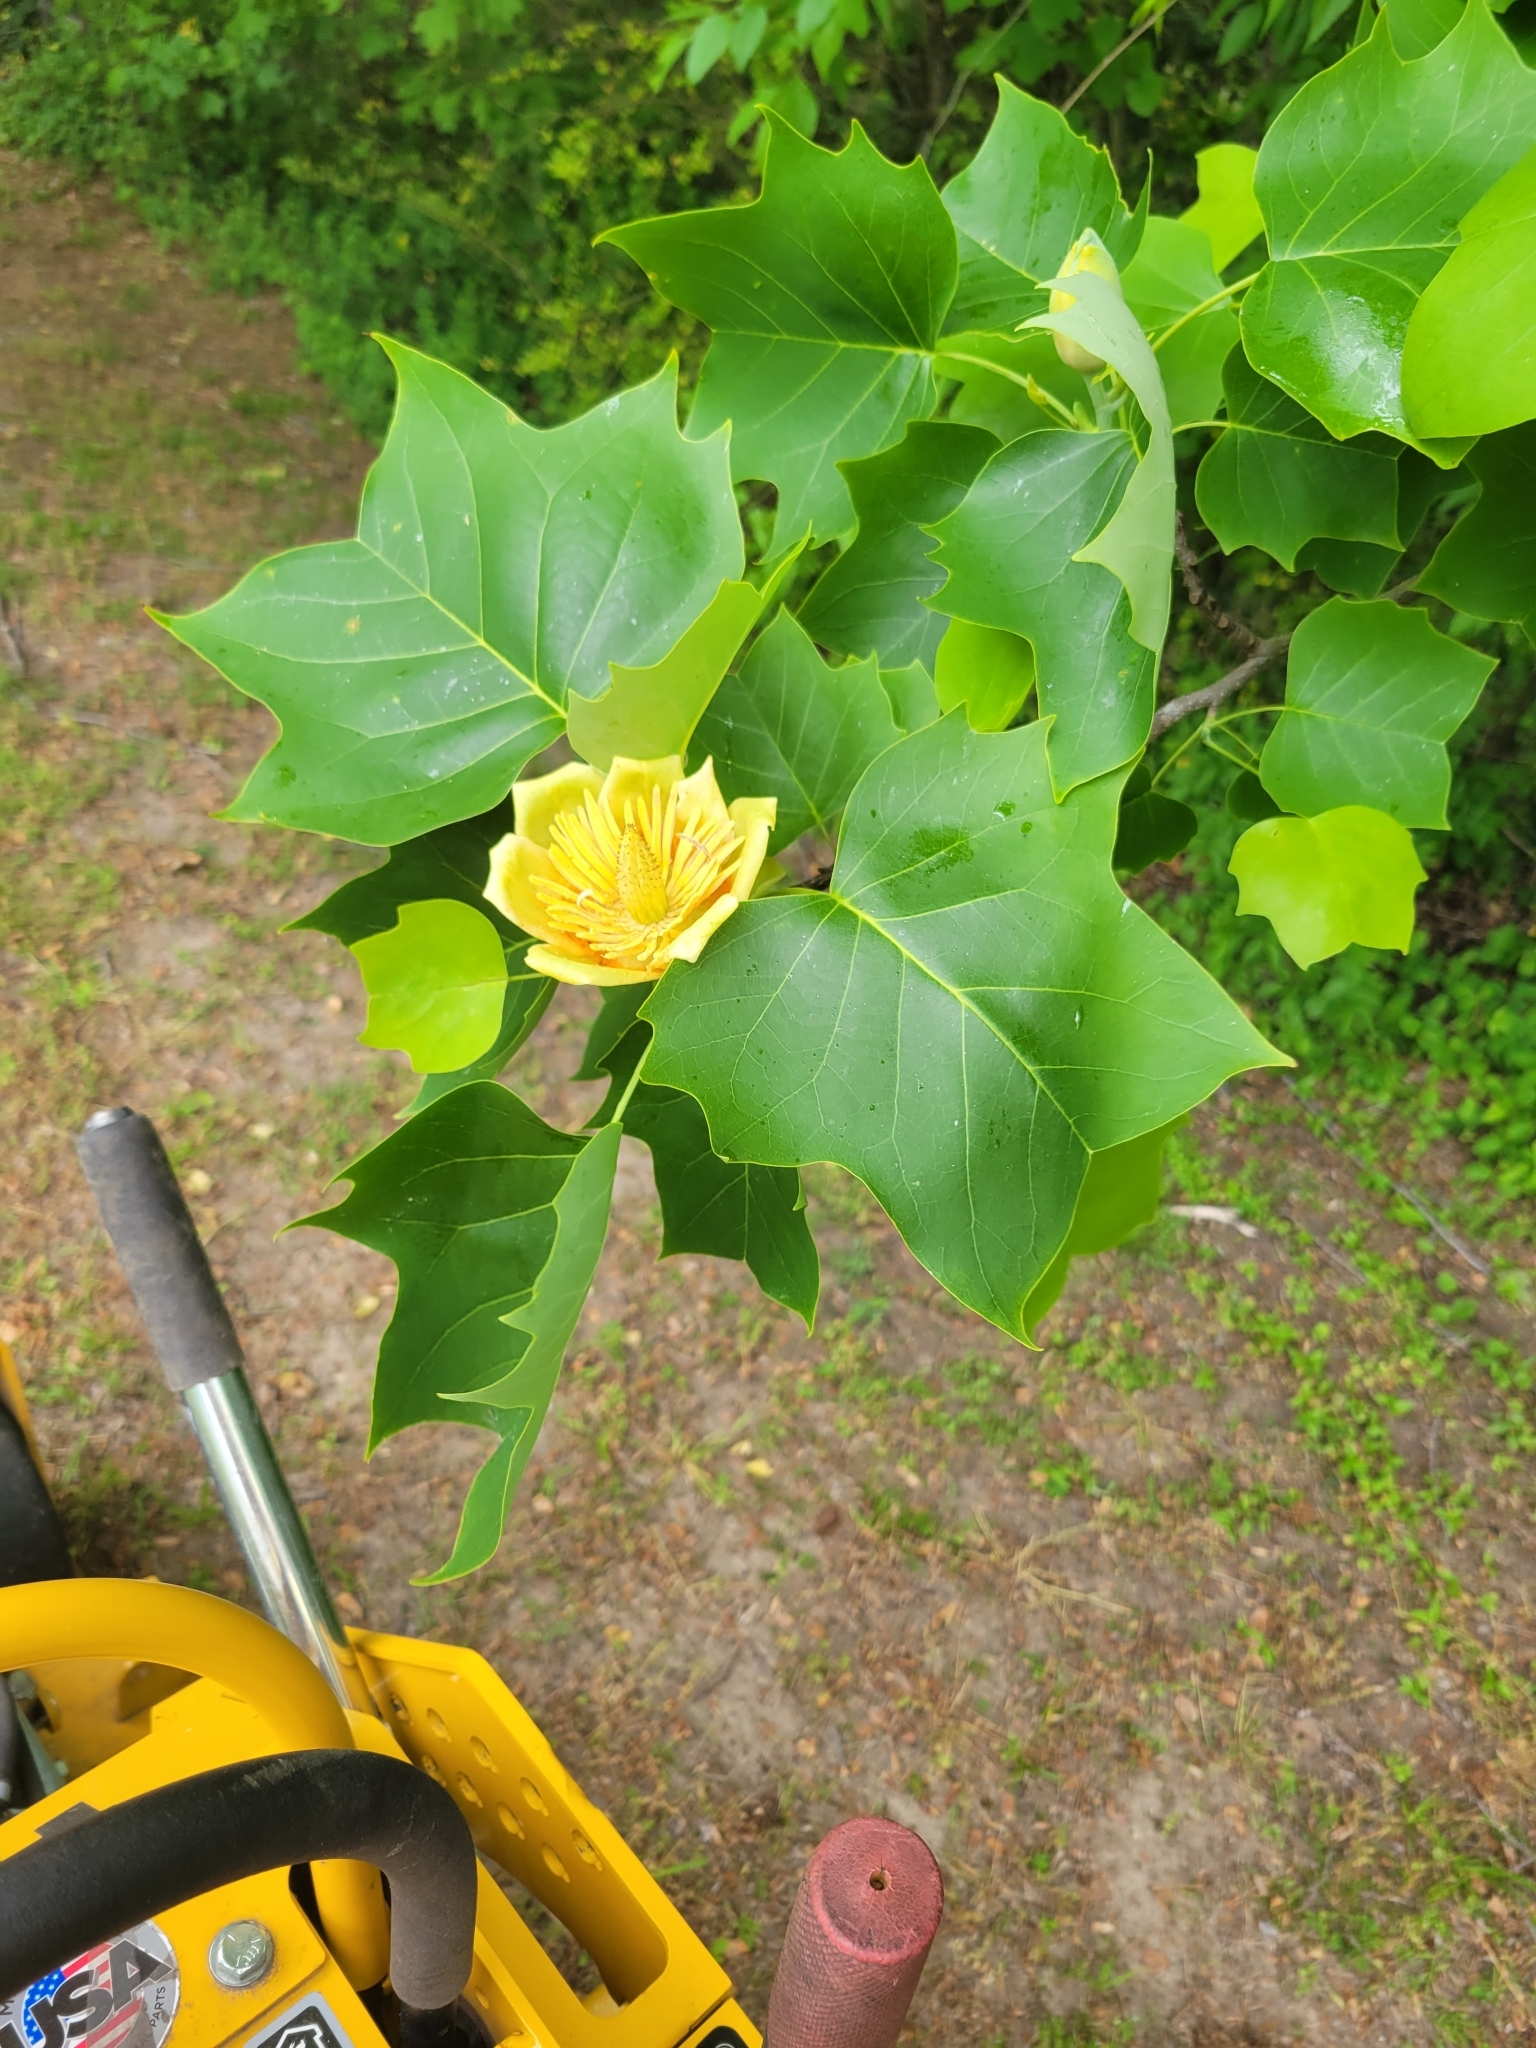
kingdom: Plantae
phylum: Tracheophyta
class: Magnoliopsida
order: Magnoliales
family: Magnoliaceae
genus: Liriodendron
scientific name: Liriodendron tulipifera
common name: Tulip tree
